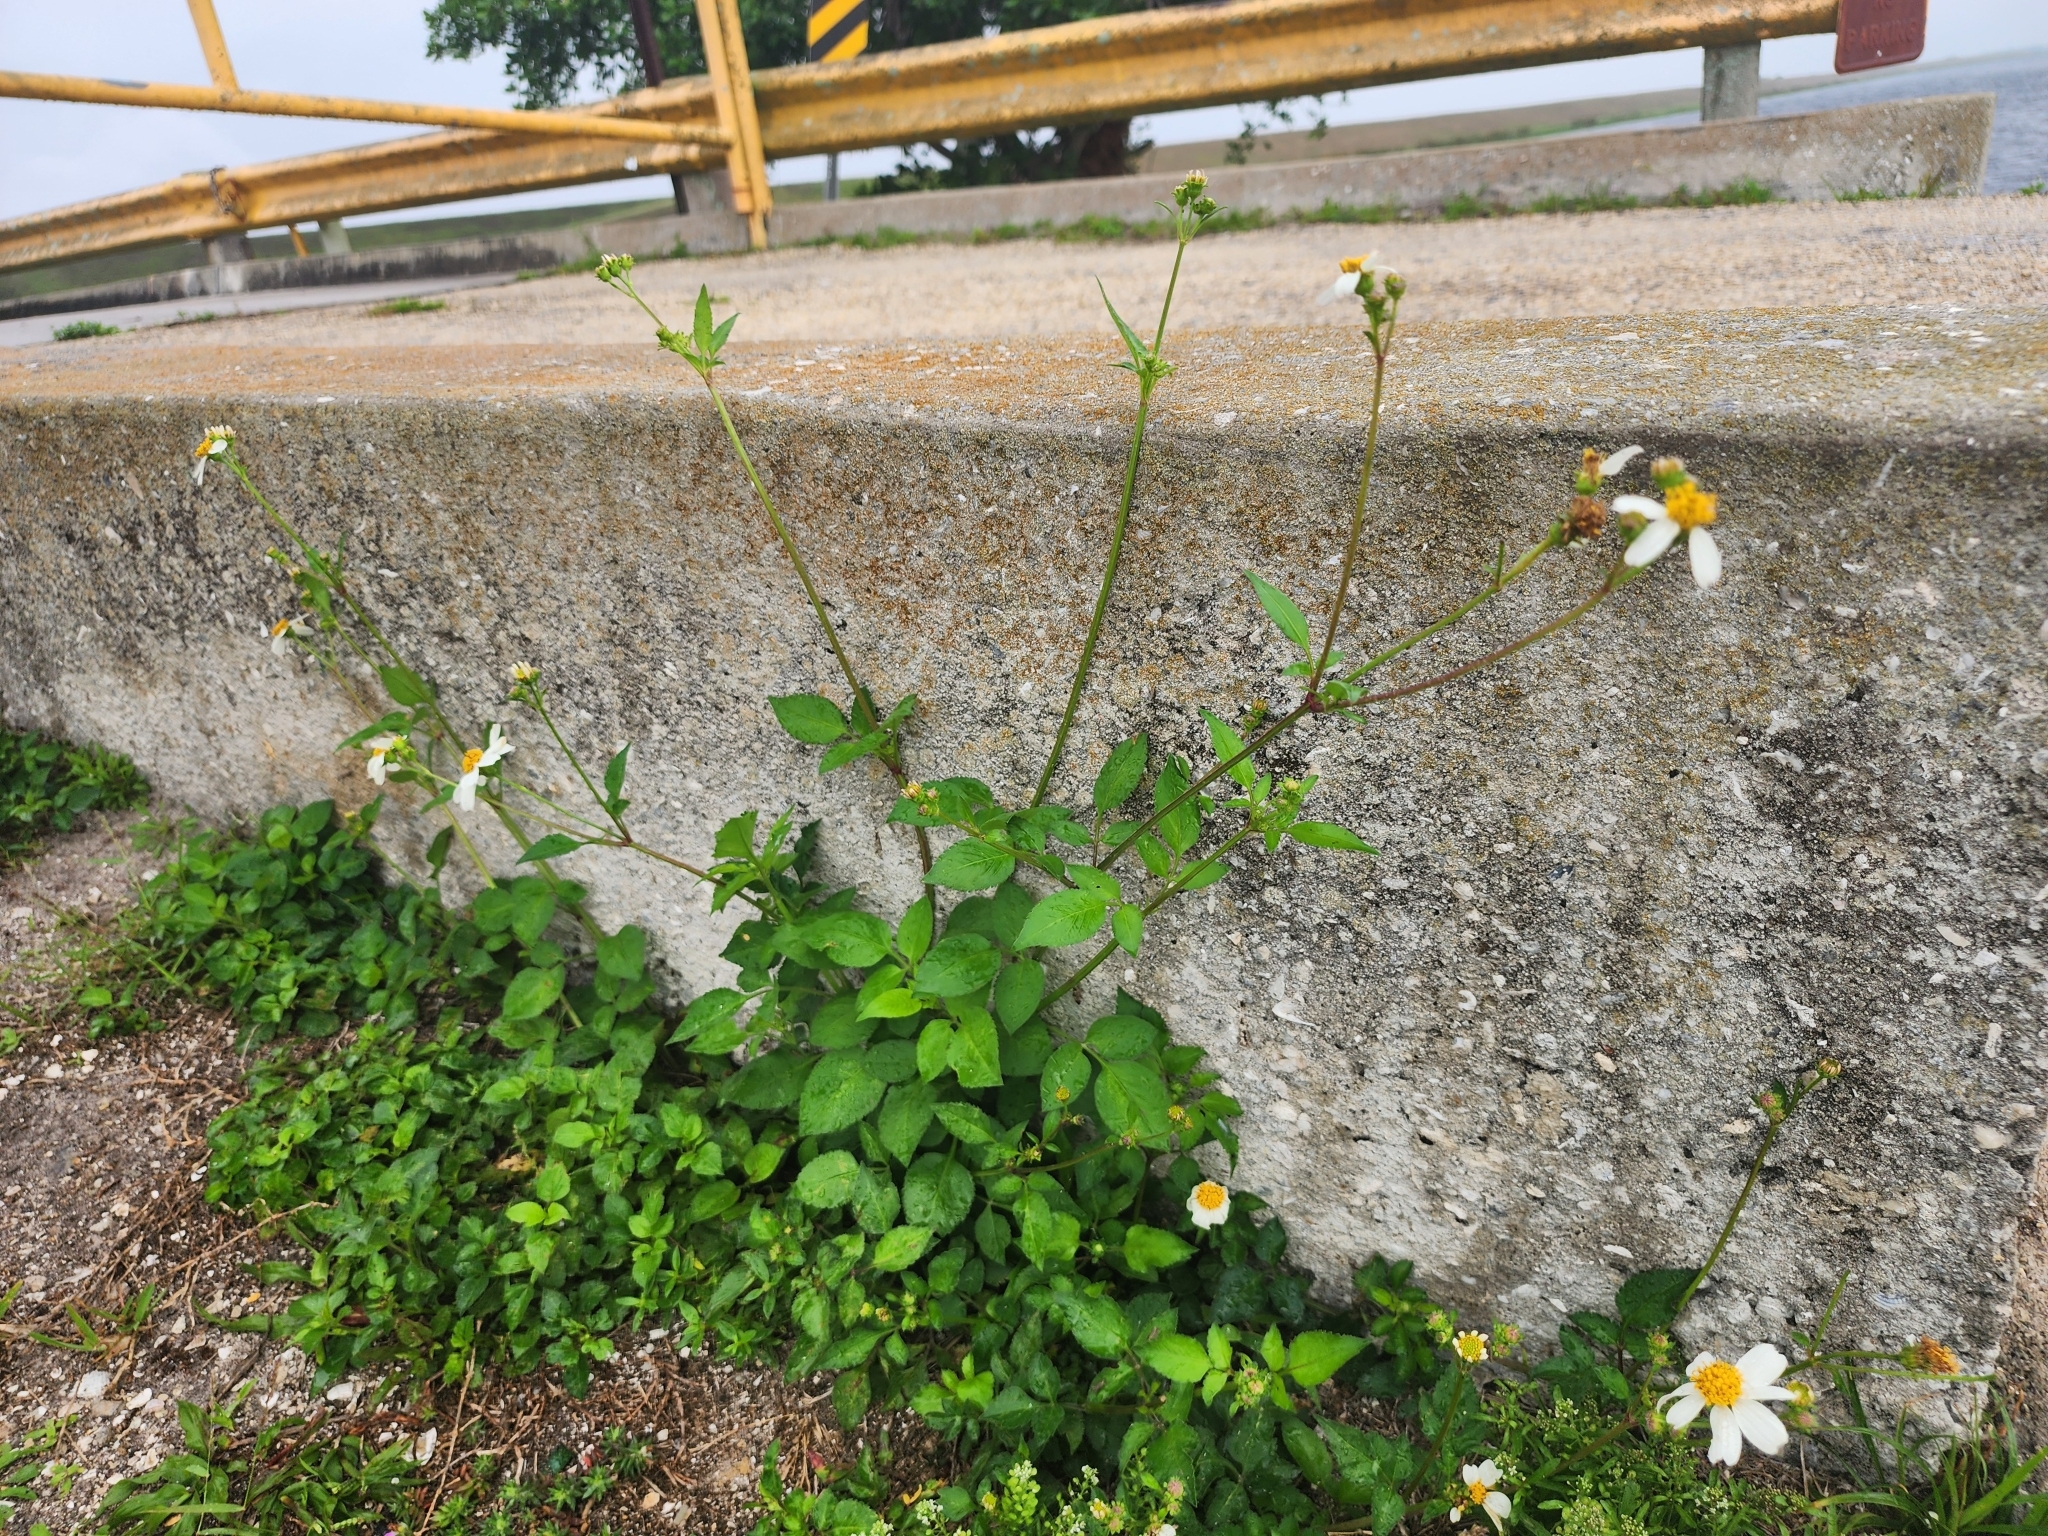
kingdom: Plantae
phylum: Tracheophyta
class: Magnoliopsida
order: Asterales
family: Asteraceae
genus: Bidens
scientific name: Bidens alba
